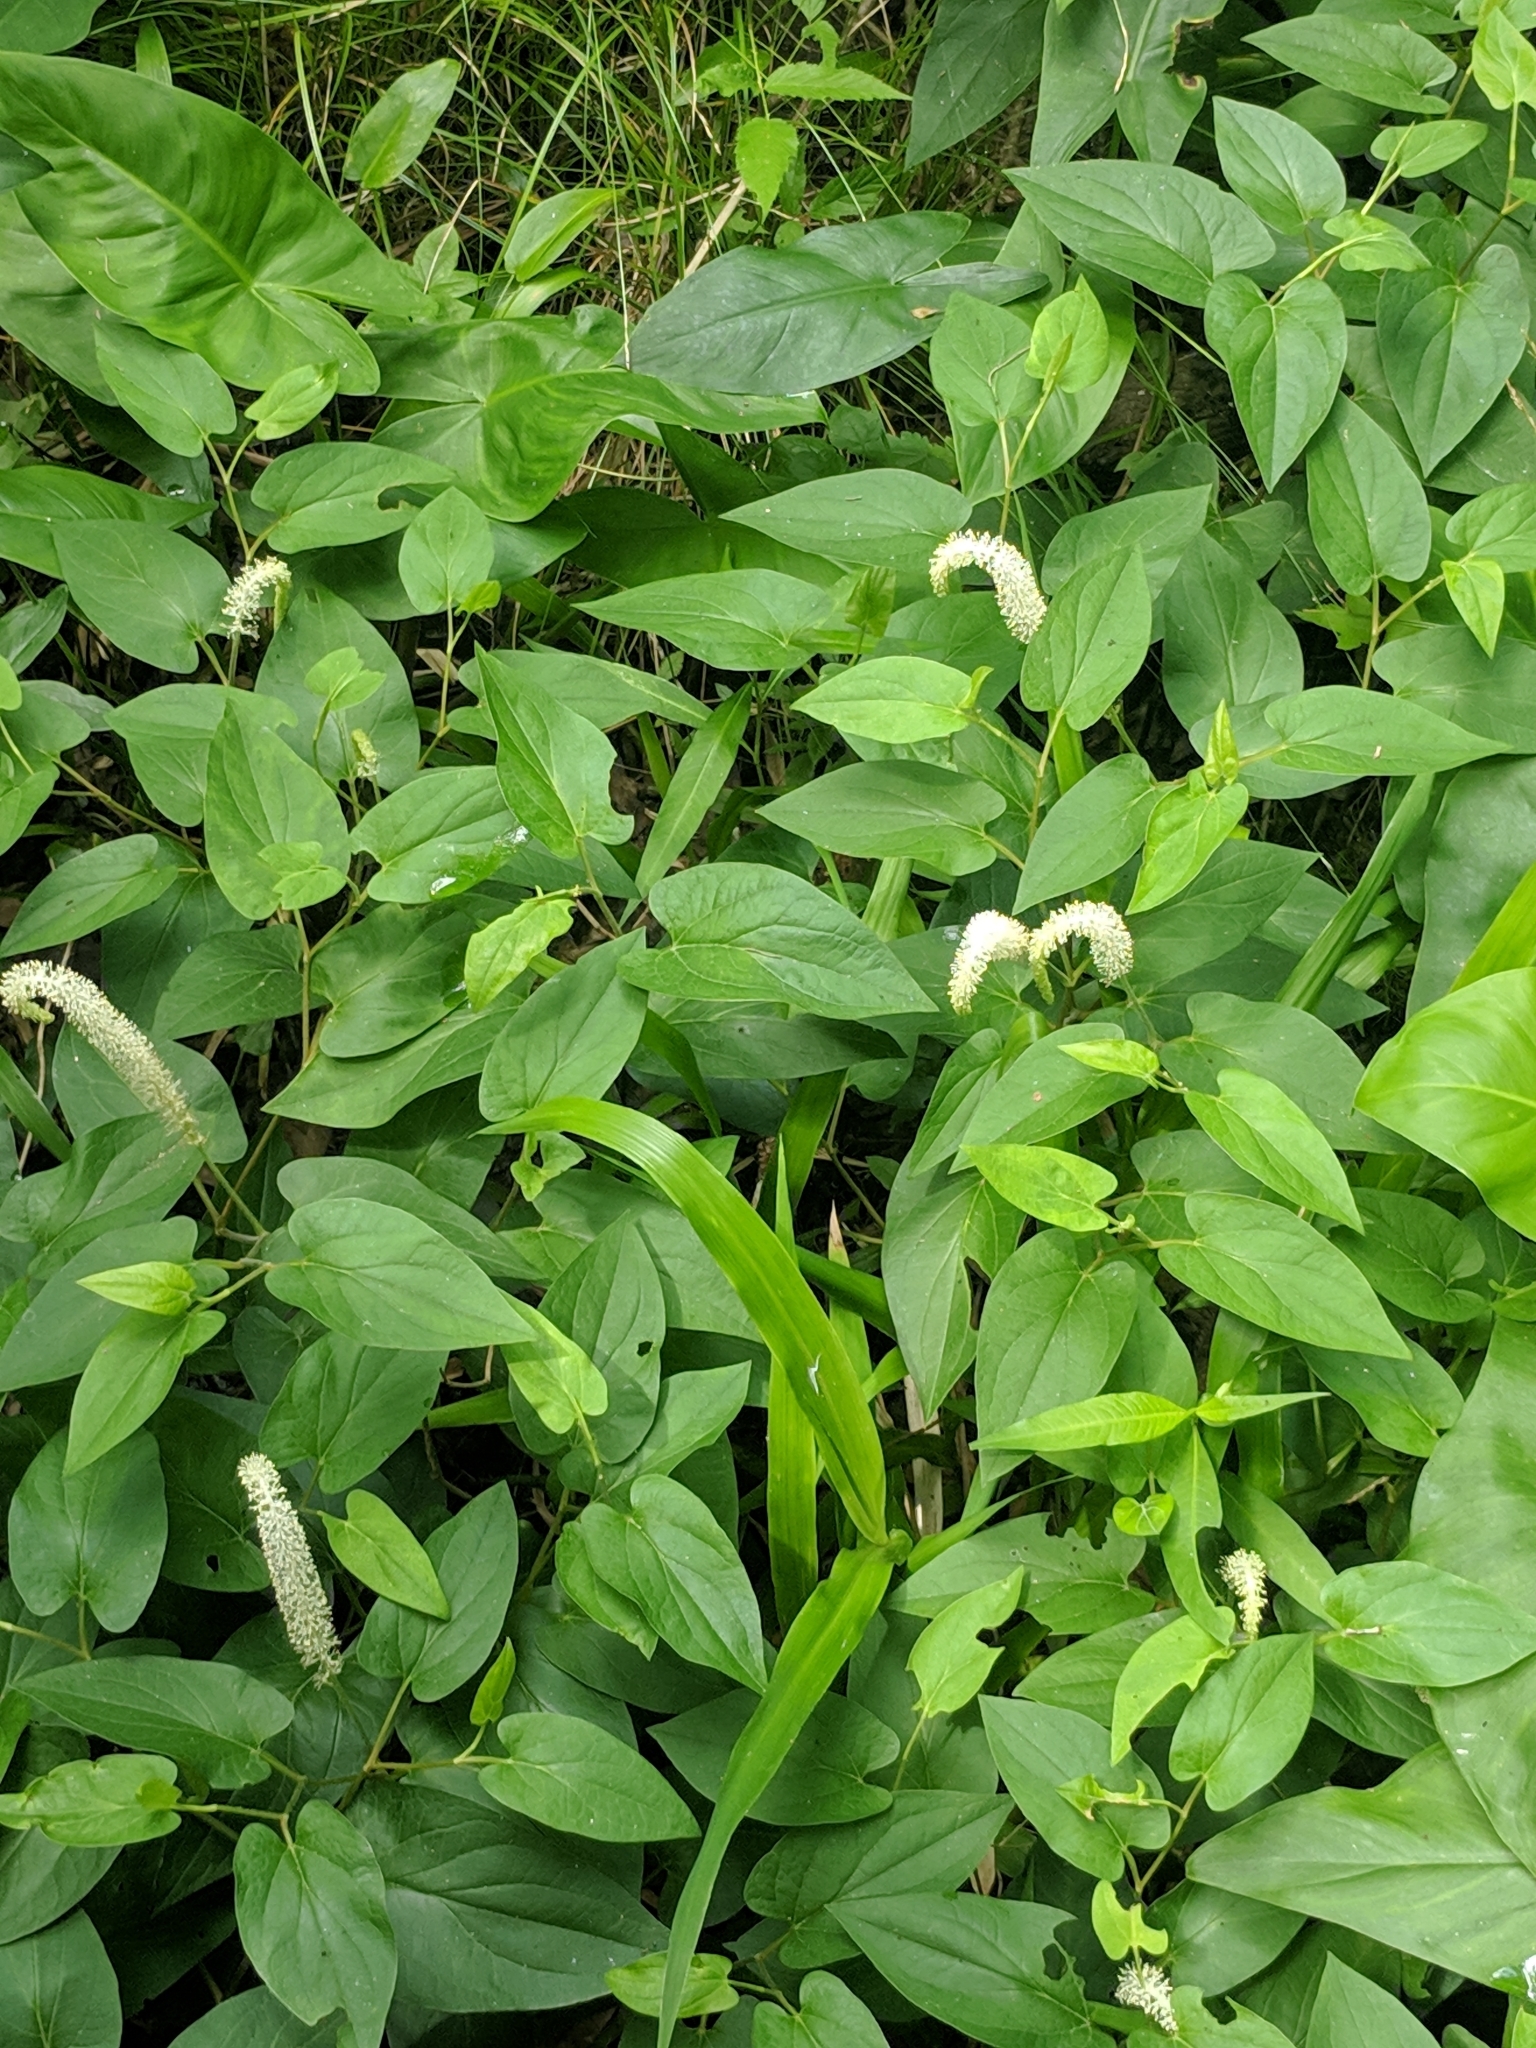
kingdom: Plantae
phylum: Tracheophyta
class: Magnoliopsida
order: Piperales
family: Saururaceae
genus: Saururus
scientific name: Saururus cernuus
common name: Lizard's-tail
